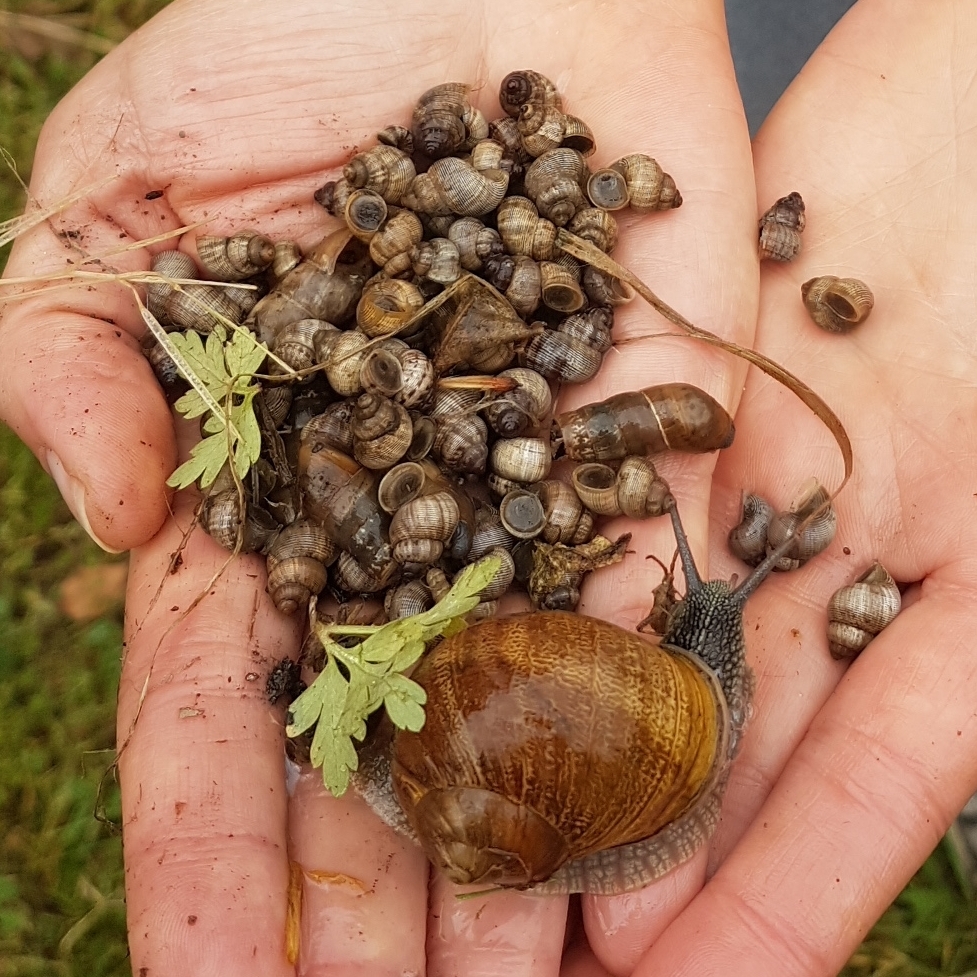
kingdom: Animalia
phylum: Mollusca
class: Gastropoda
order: Littorinimorpha
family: Pomatiidae
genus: Pomatias
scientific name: Pomatias elegans
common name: Red-mouthed snail
